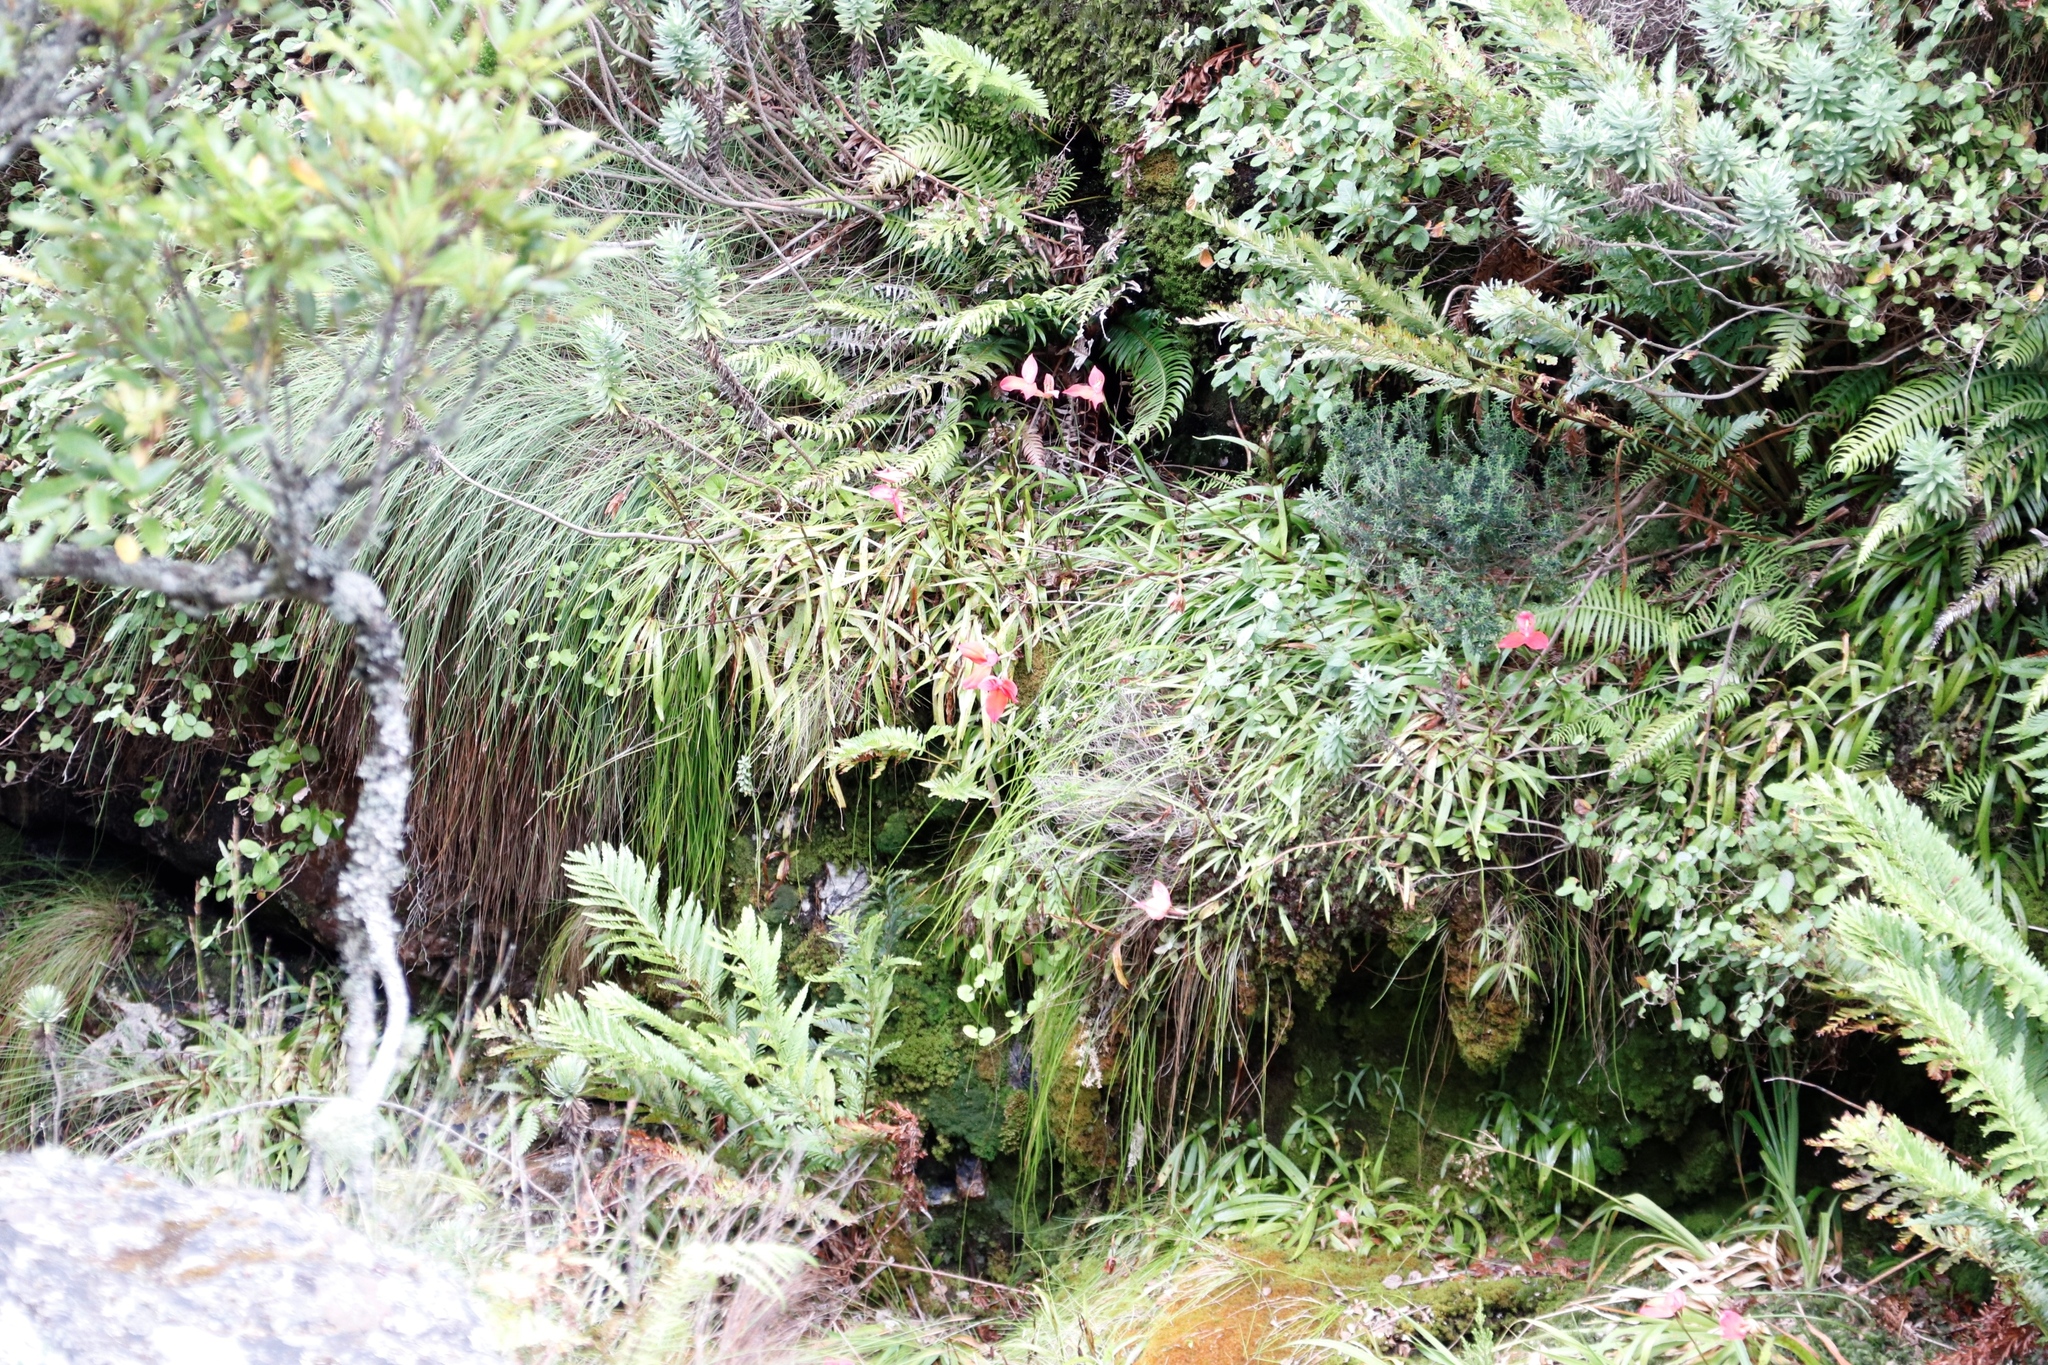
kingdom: Plantae
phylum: Tracheophyta
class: Liliopsida
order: Asparagales
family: Orchidaceae
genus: Disa
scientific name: Disa uniflora
